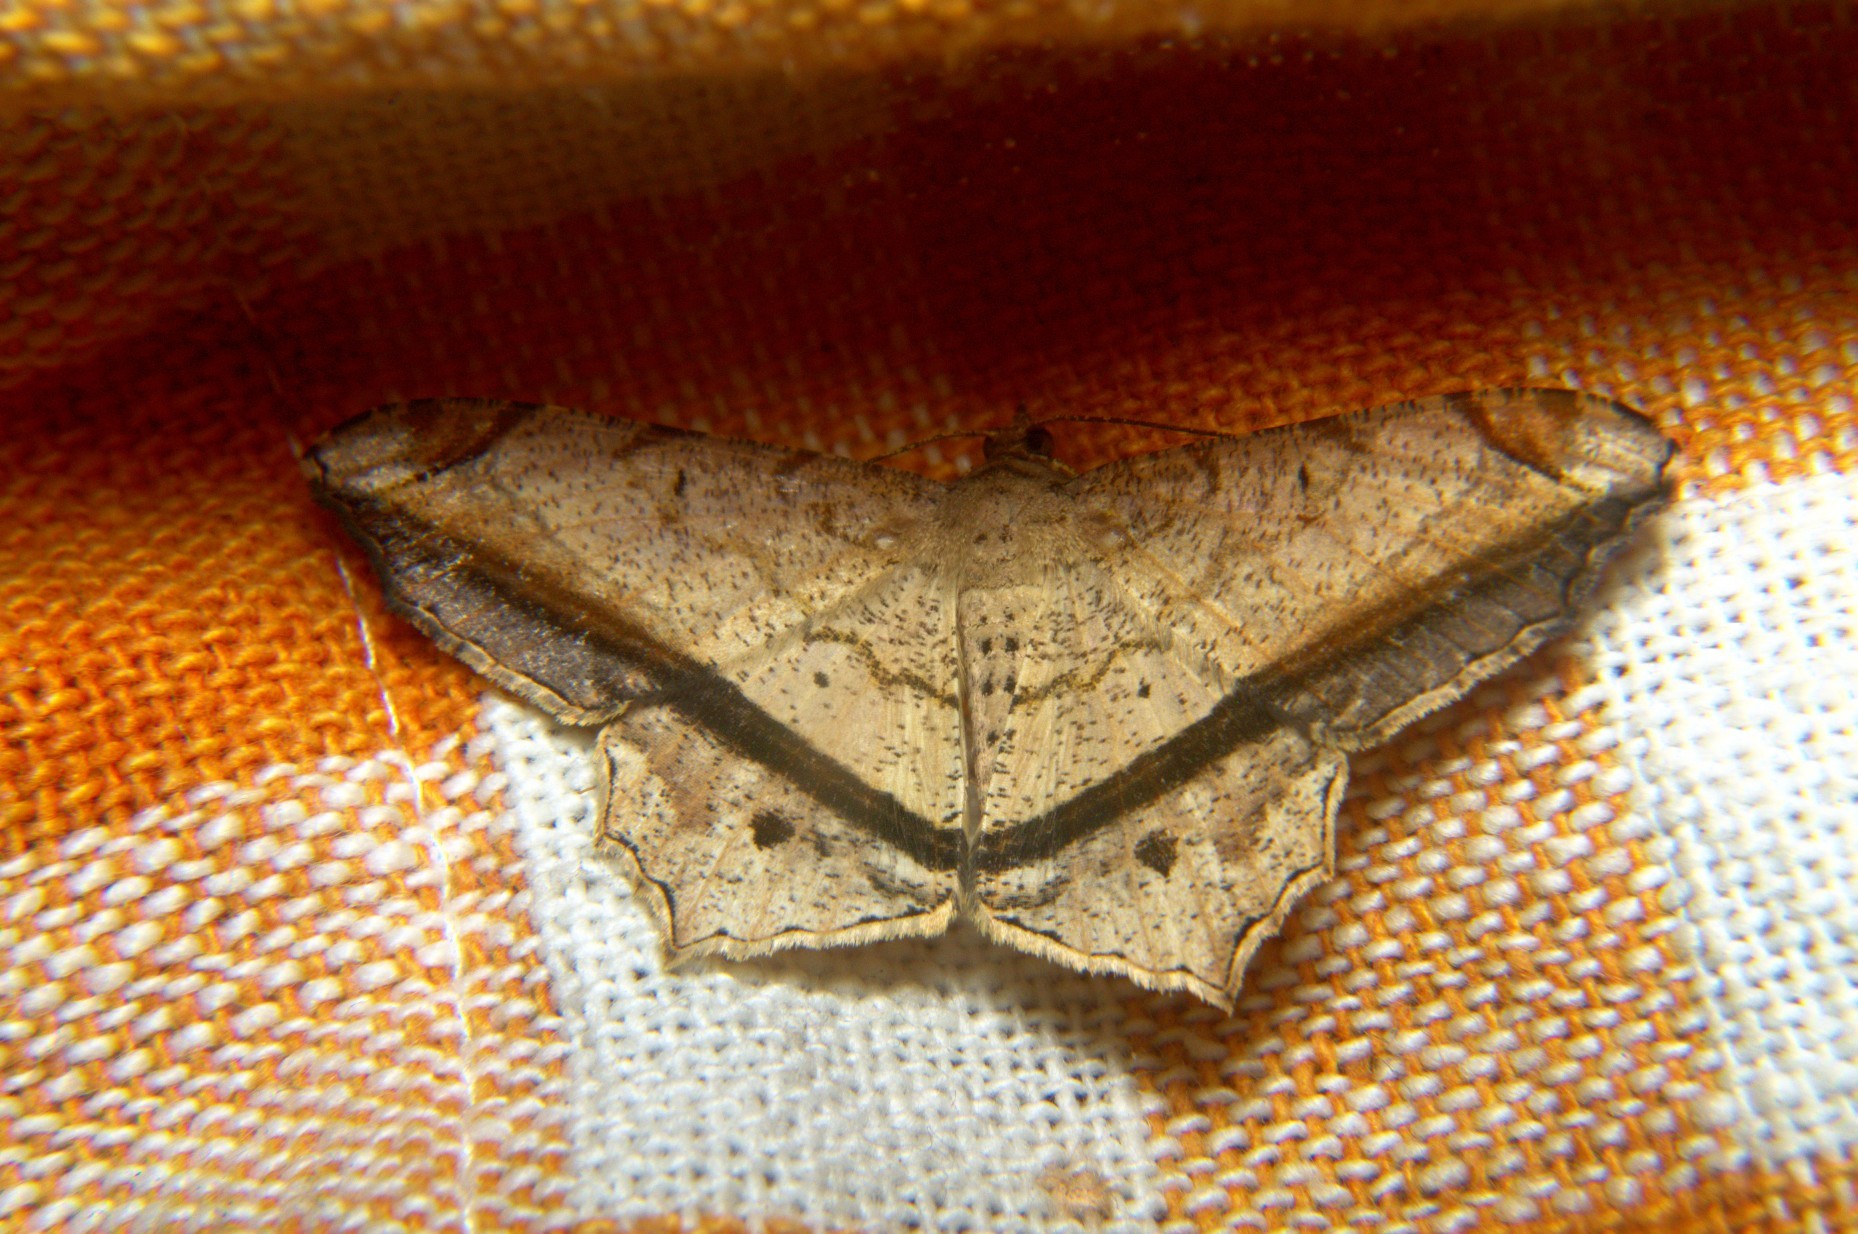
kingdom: Animalia
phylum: Arthropoda
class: Insecta
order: Lepidoptera
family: Geometridae
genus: Chiasmia
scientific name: Chiasmia ozararia
